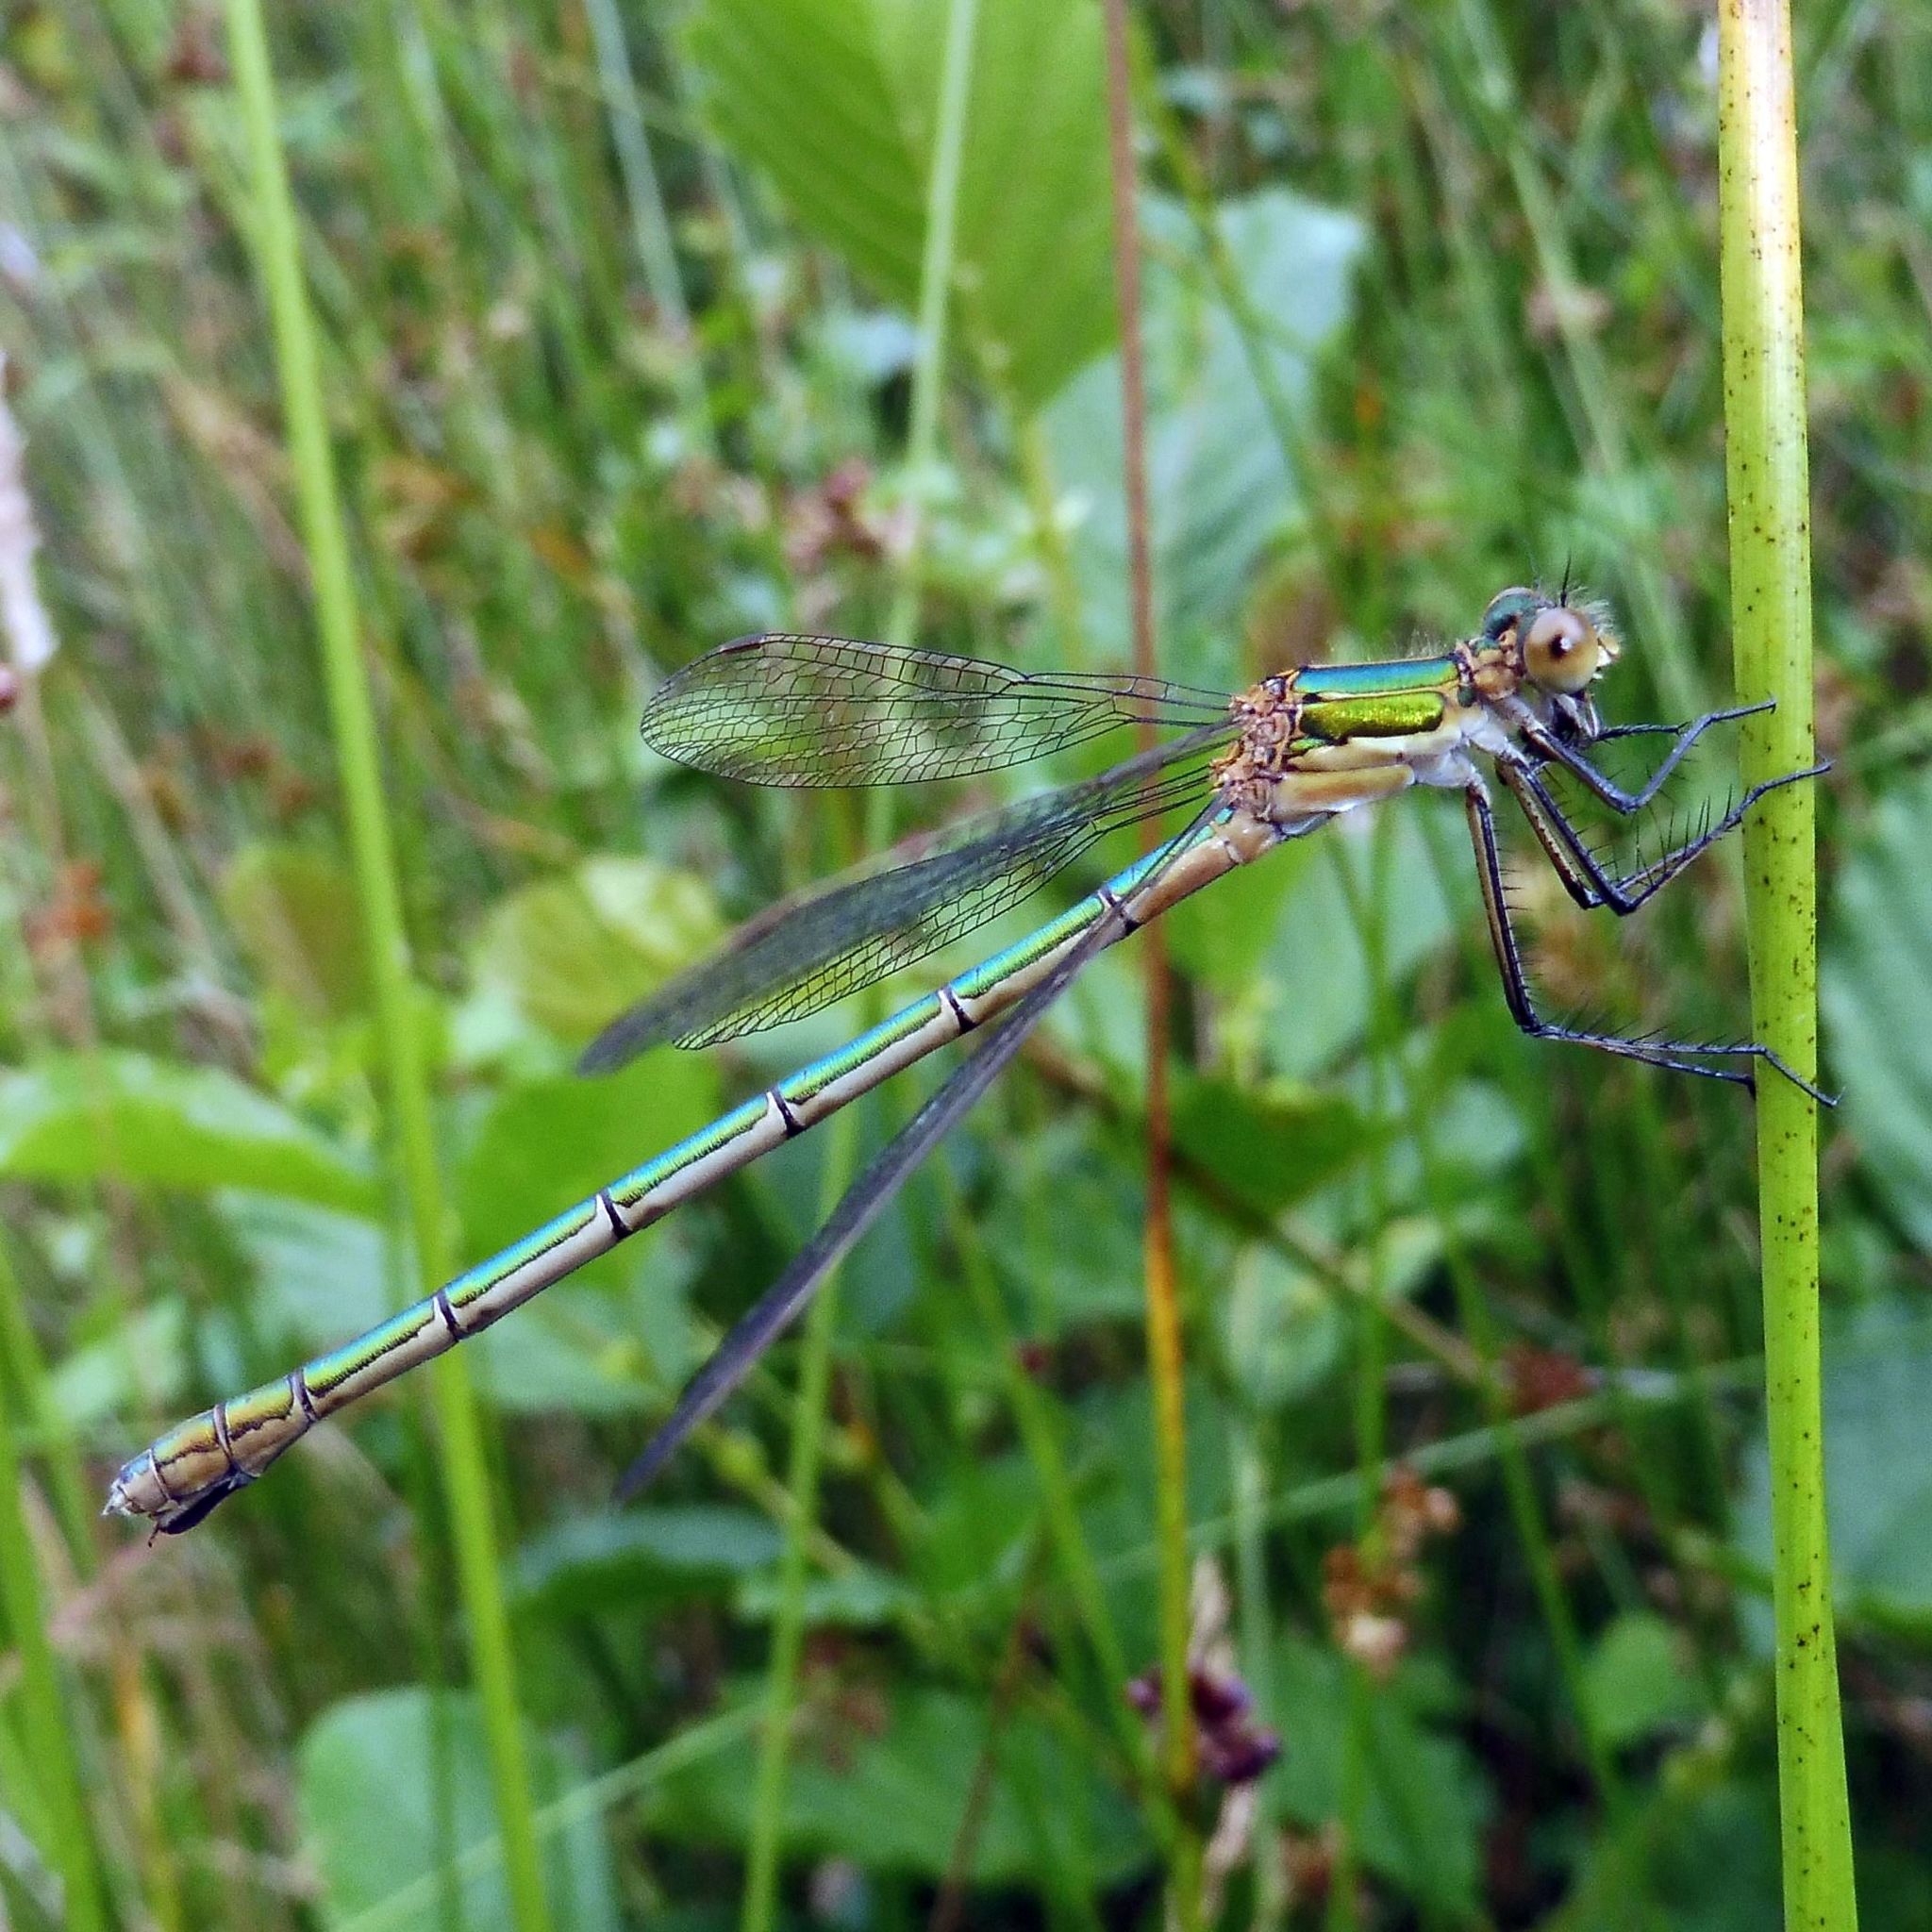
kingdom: Animalia
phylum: Arthropoda
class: Insecta
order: Odonata
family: Lestidae
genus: Lestes
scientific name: Lestes sponsa
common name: Common spreadwing
